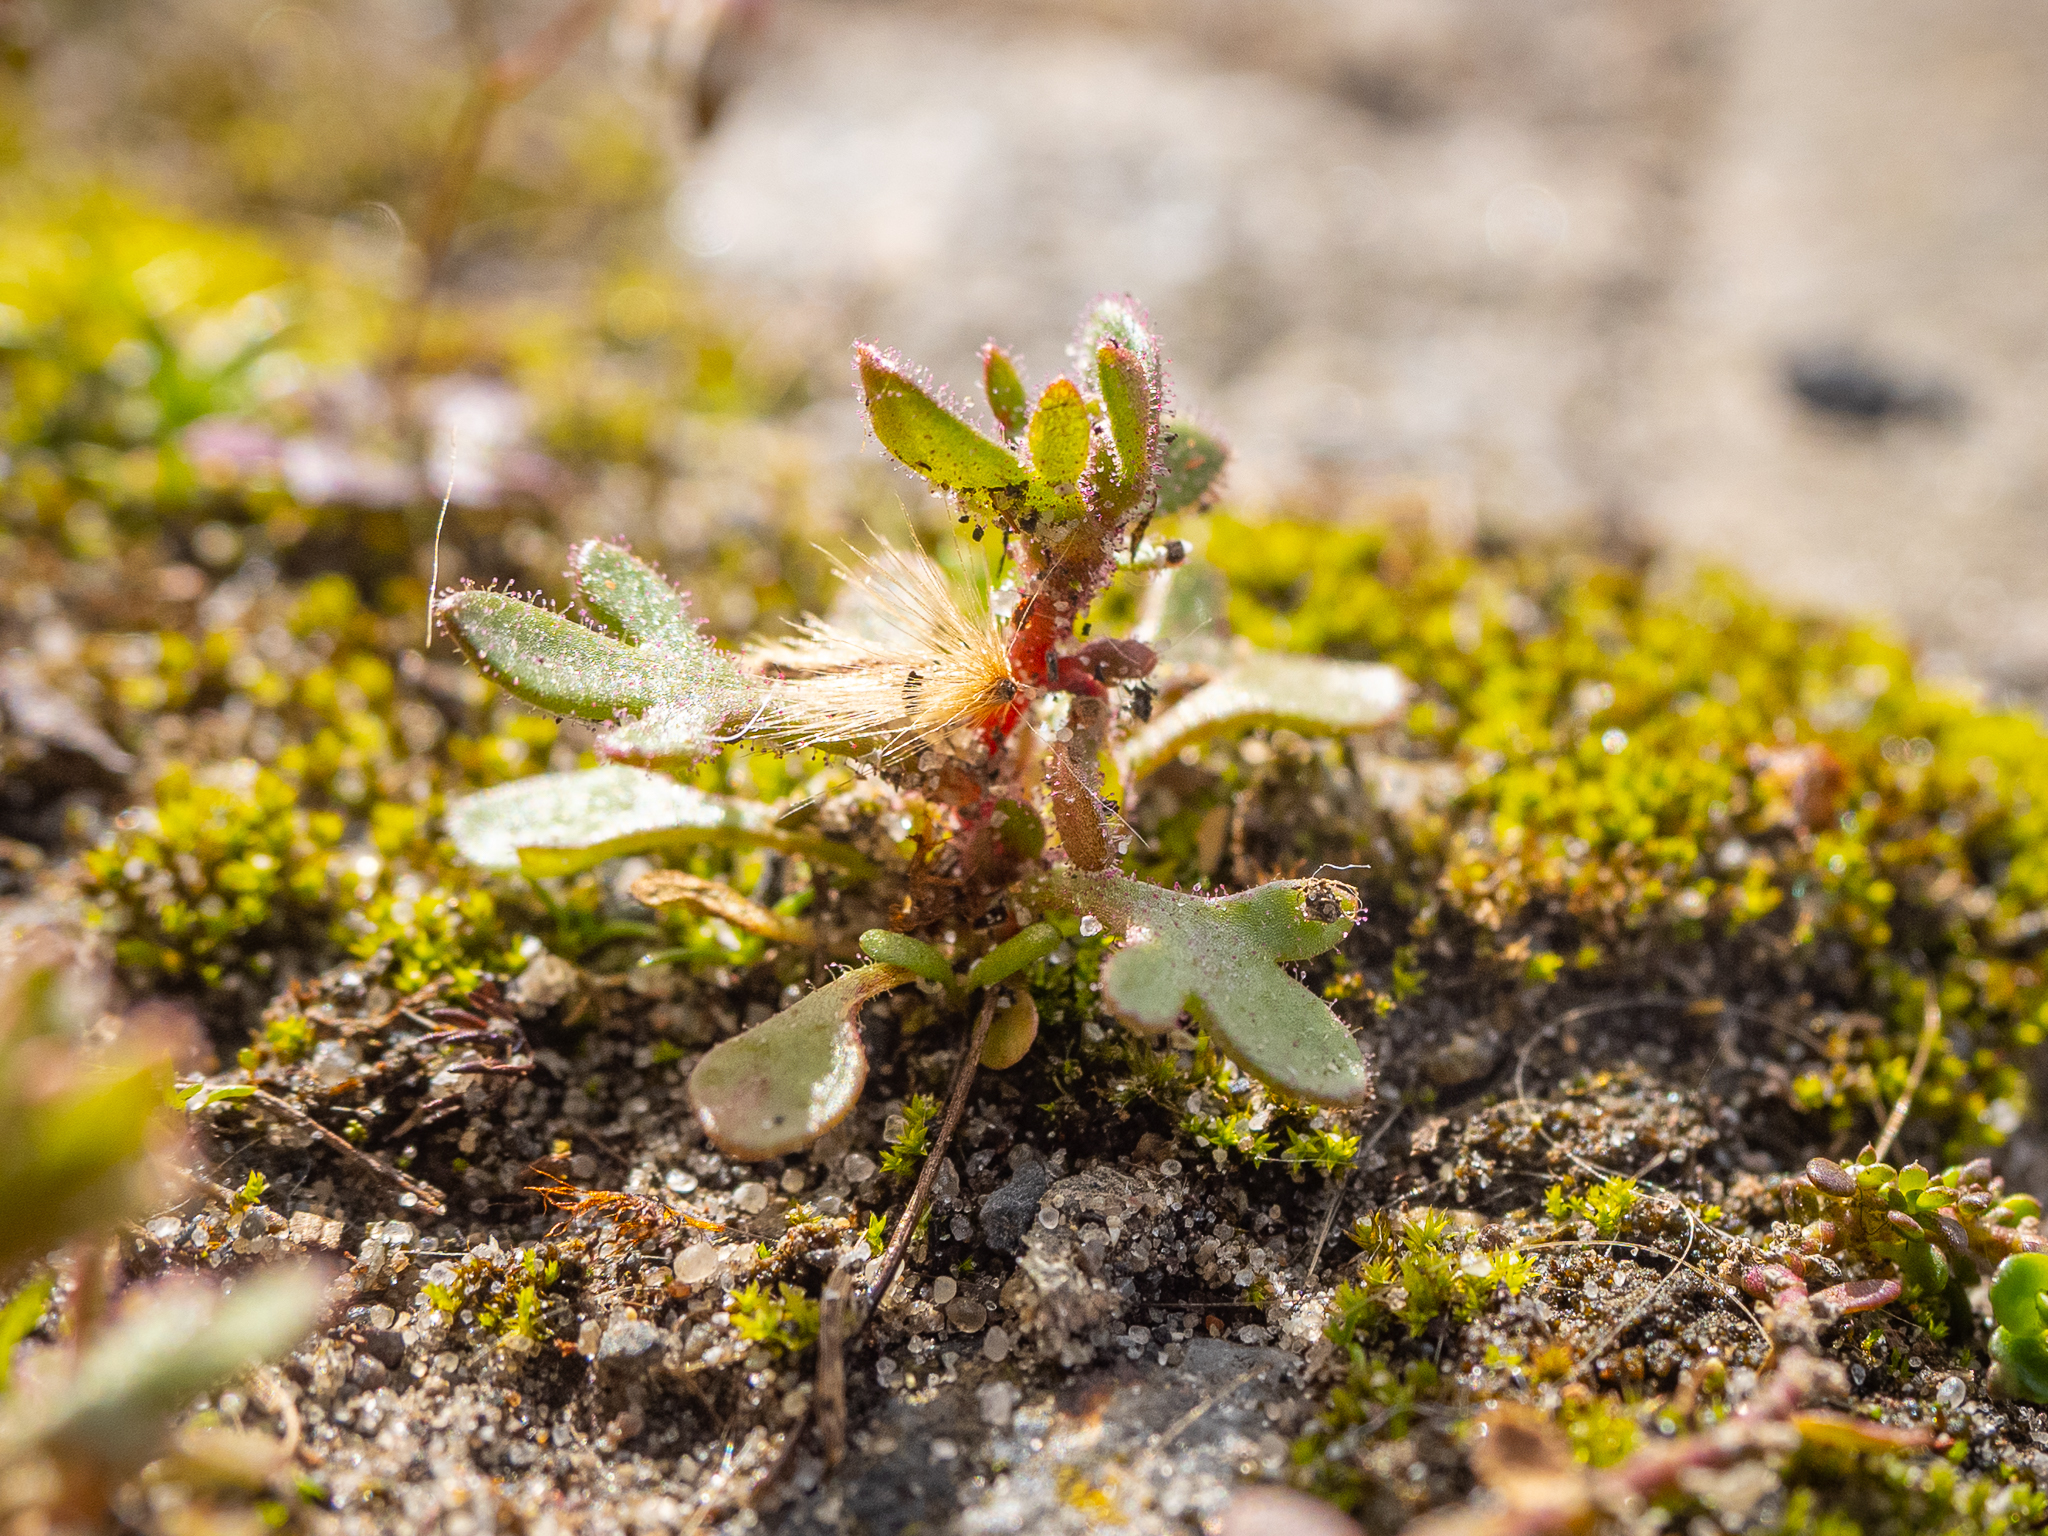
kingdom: Plantae
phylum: Tracheophyta
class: Magnoliopsida
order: Saxifragales
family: Saxifragaceae
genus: Saxifraga
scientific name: Saxifraga tridactylites
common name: Rue-leaved saxifrage
